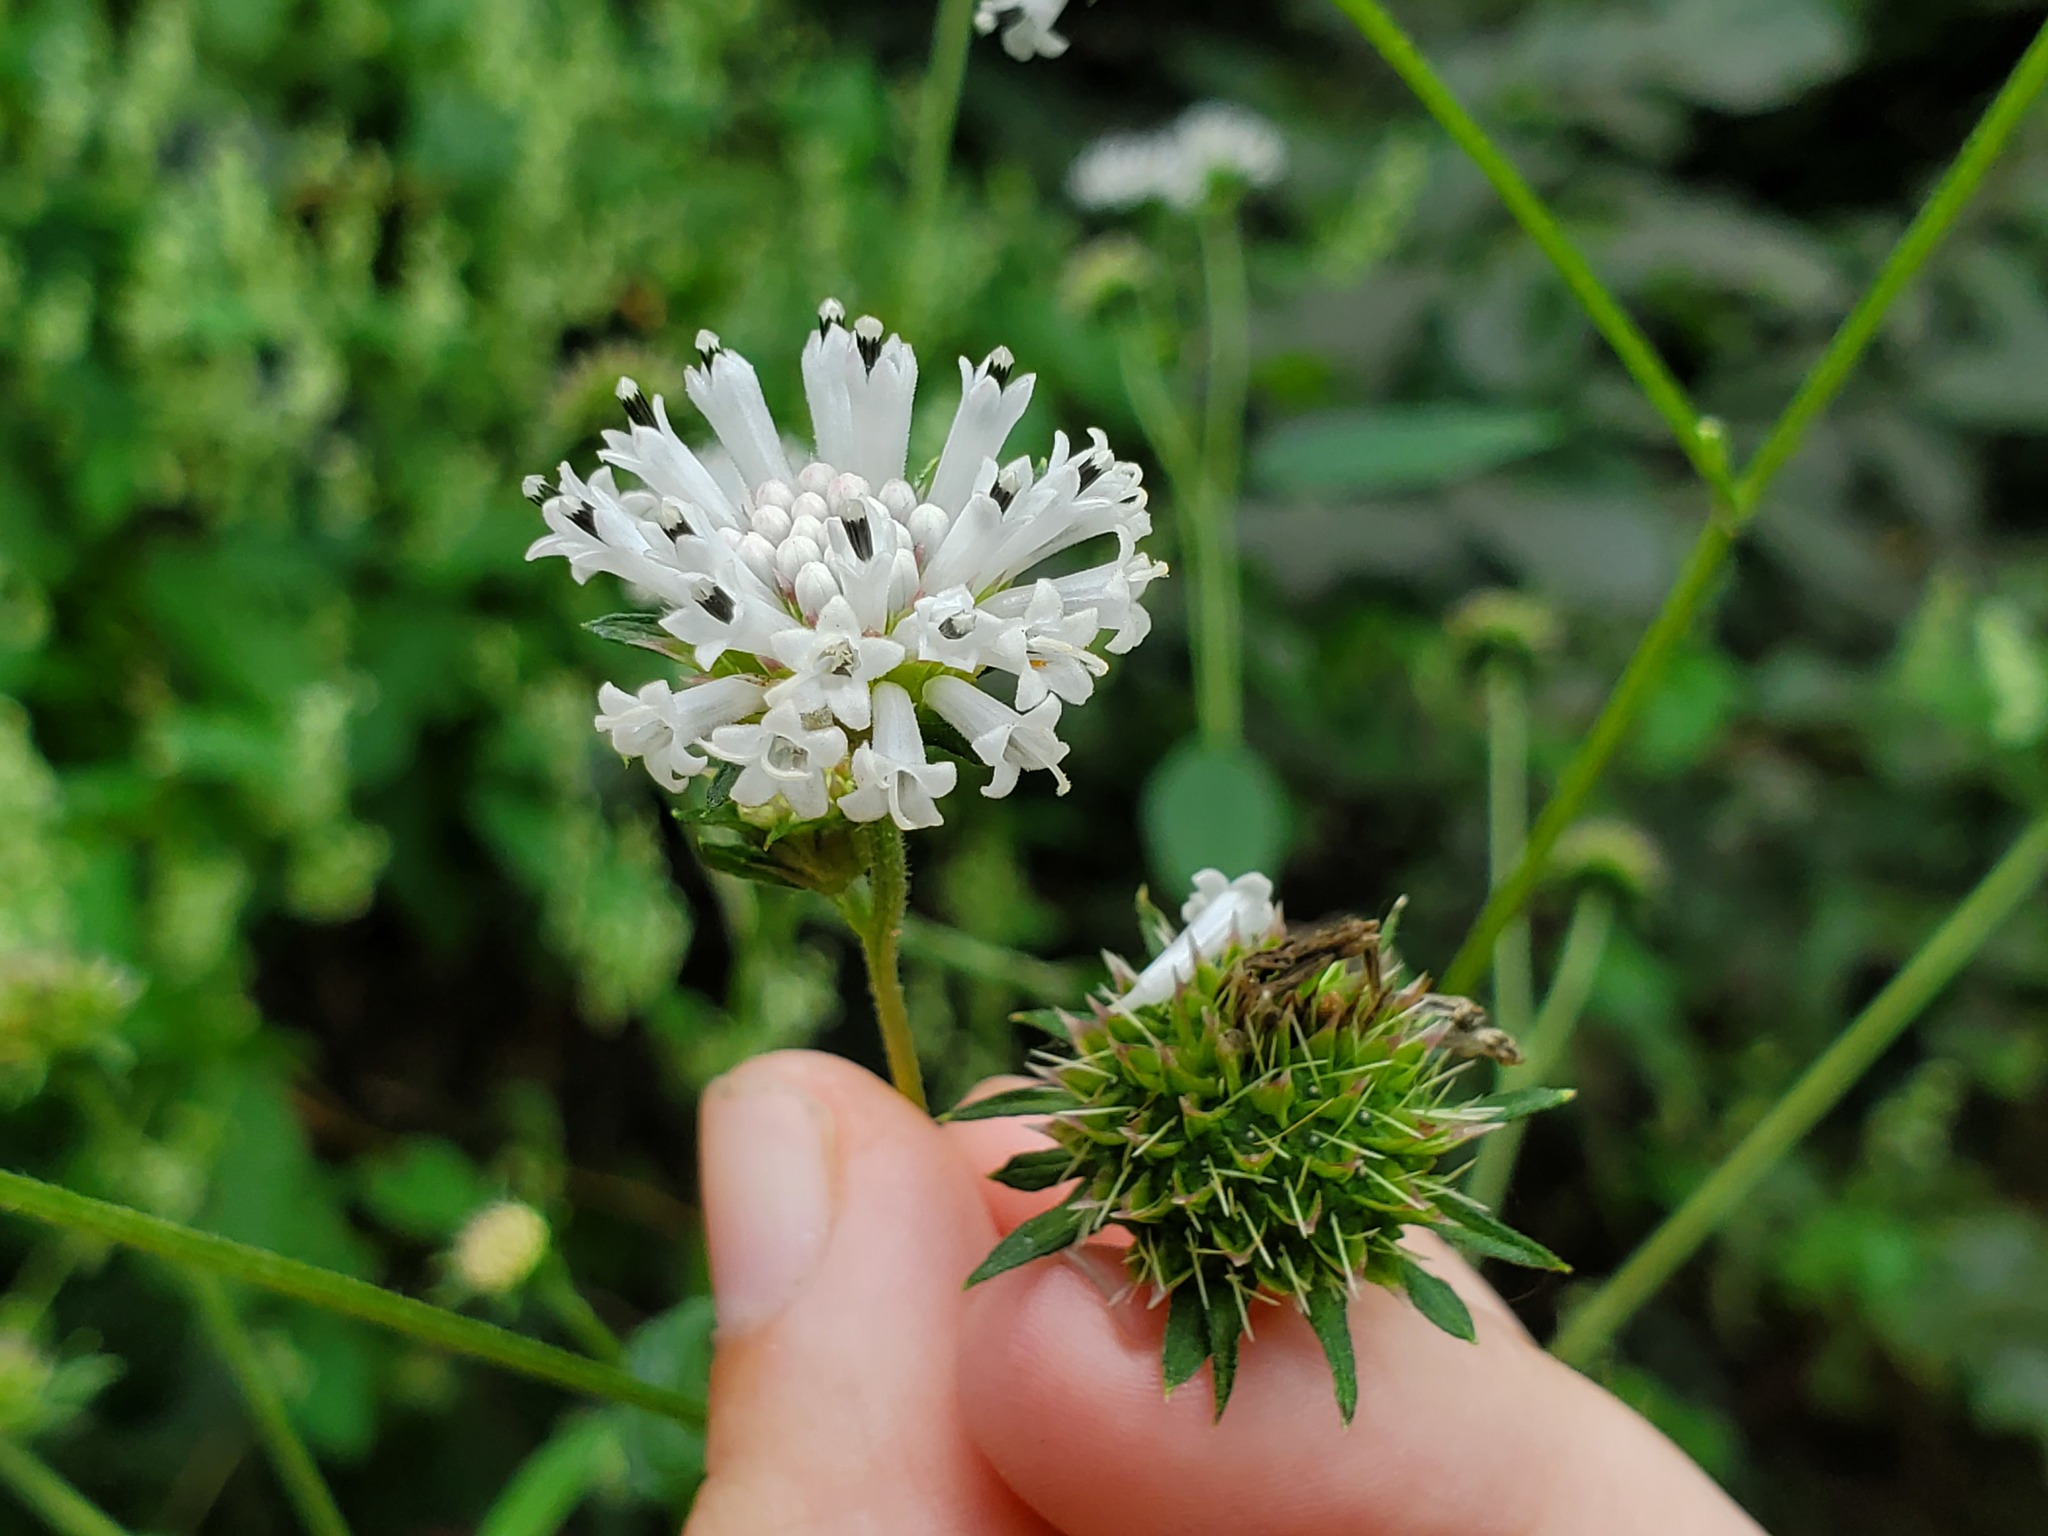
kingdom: Plantae
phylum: Tracheophyta
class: Magnoliopsida
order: Asterales
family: Asteraceae
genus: Melanthera
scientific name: Melanthera nivea
